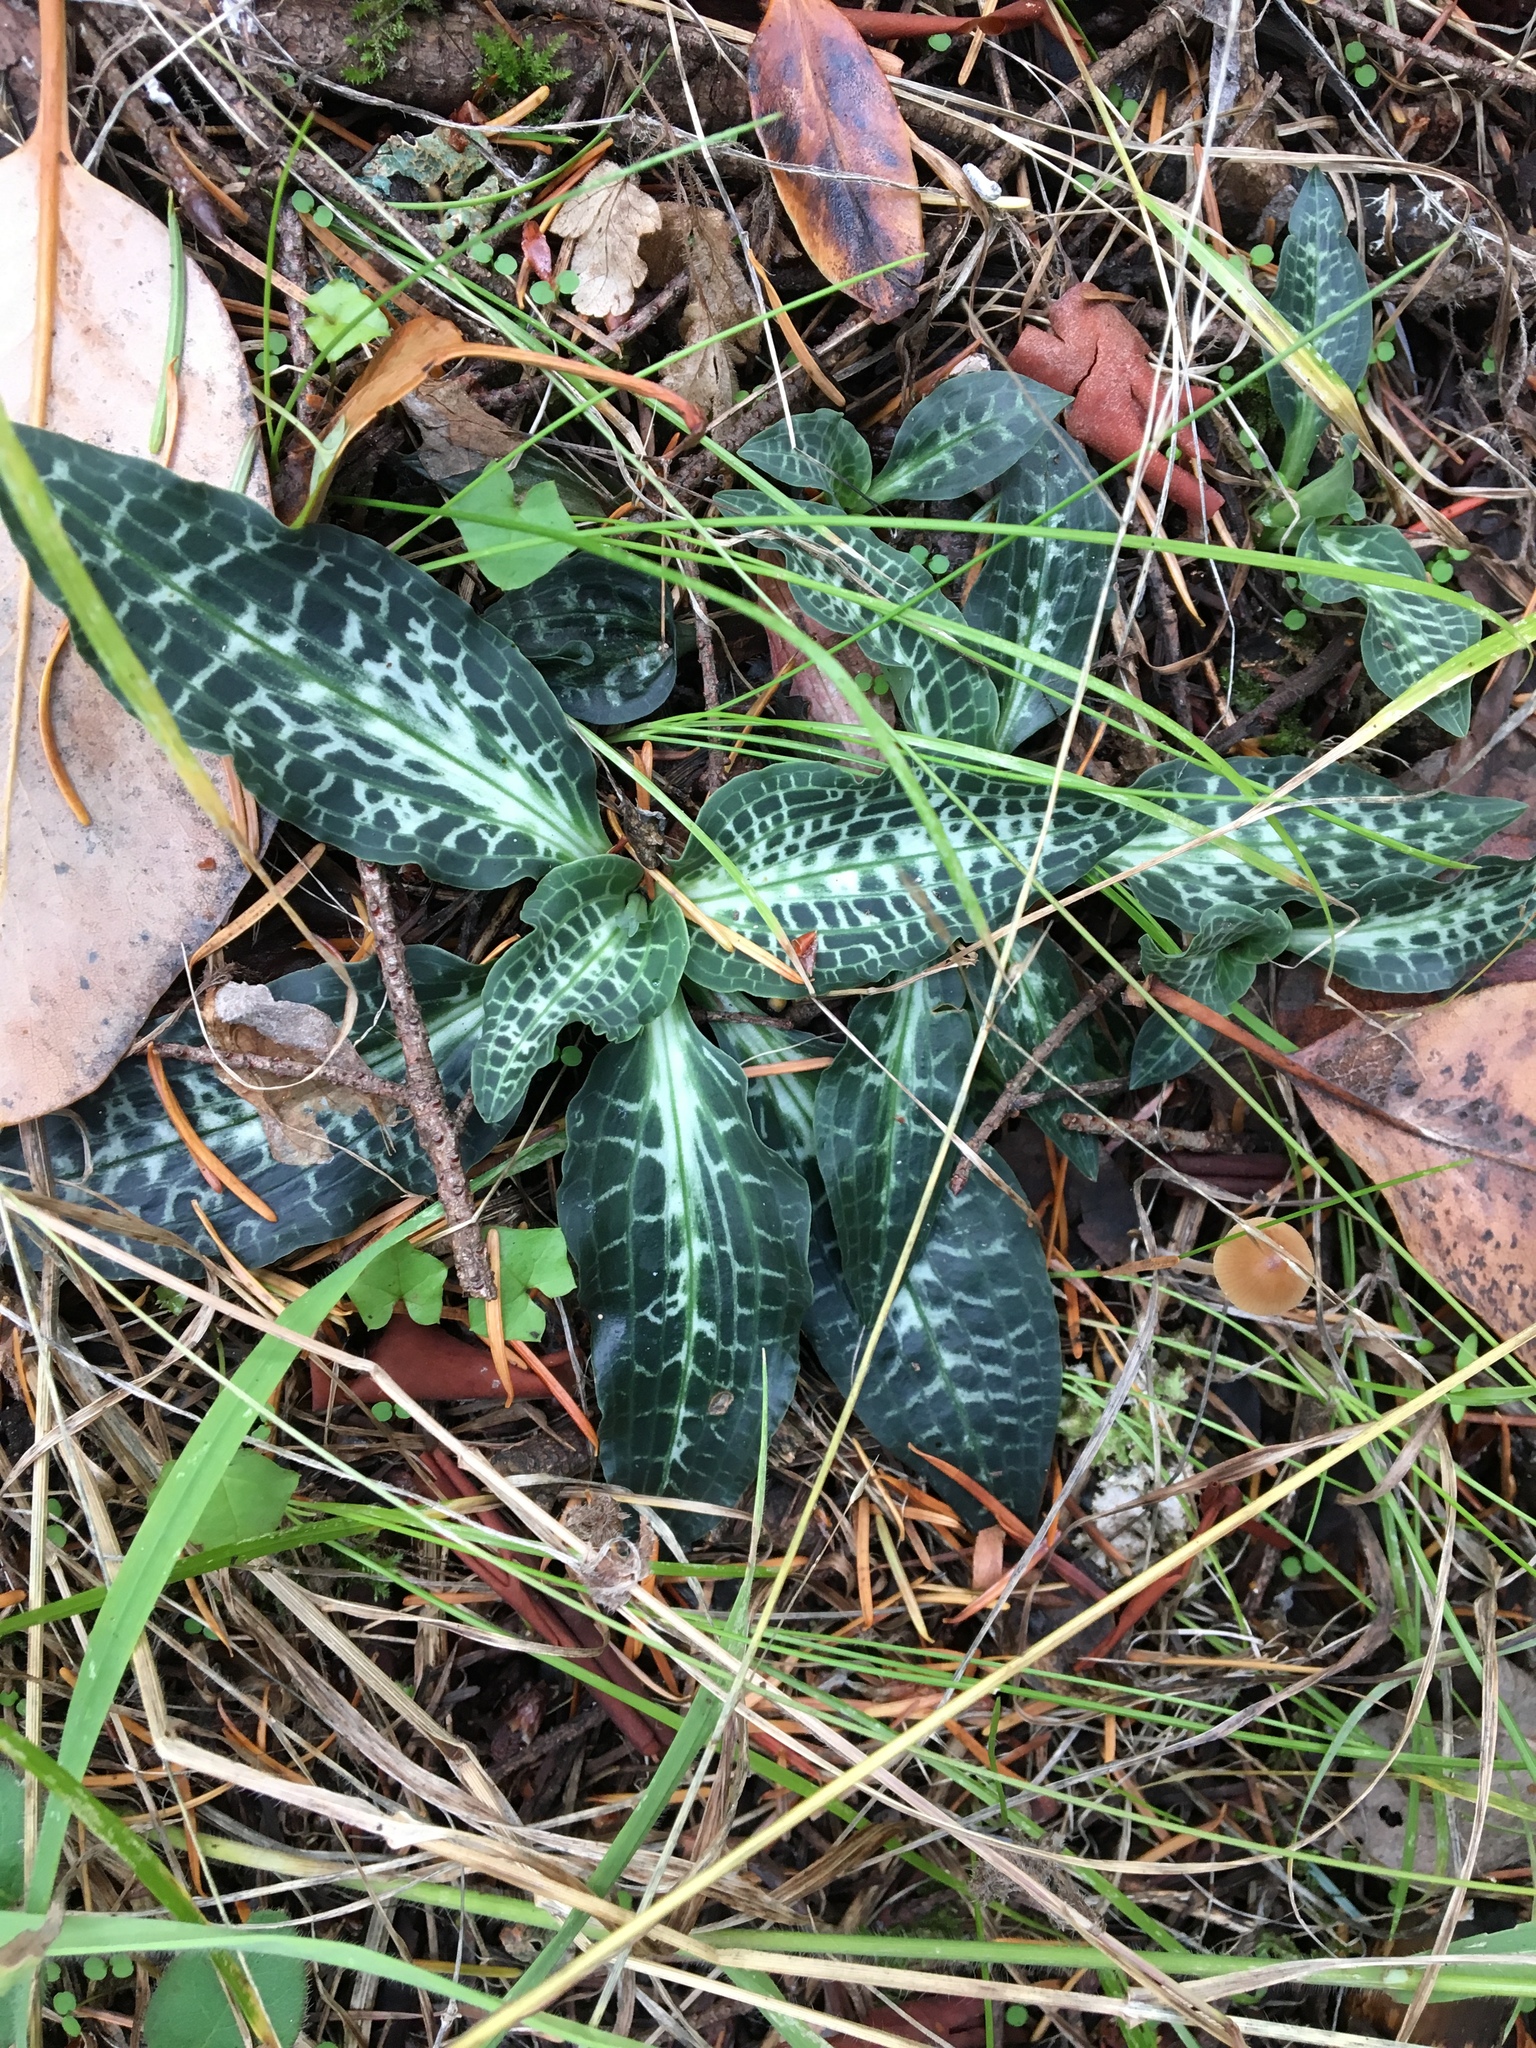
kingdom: Plantae
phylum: Tracheophyta
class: Liliopsida
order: Asparagales
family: Orchidaceae
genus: Goodyera
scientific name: Goodyera oblongifolia
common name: Giant rattlesnake-plantain
